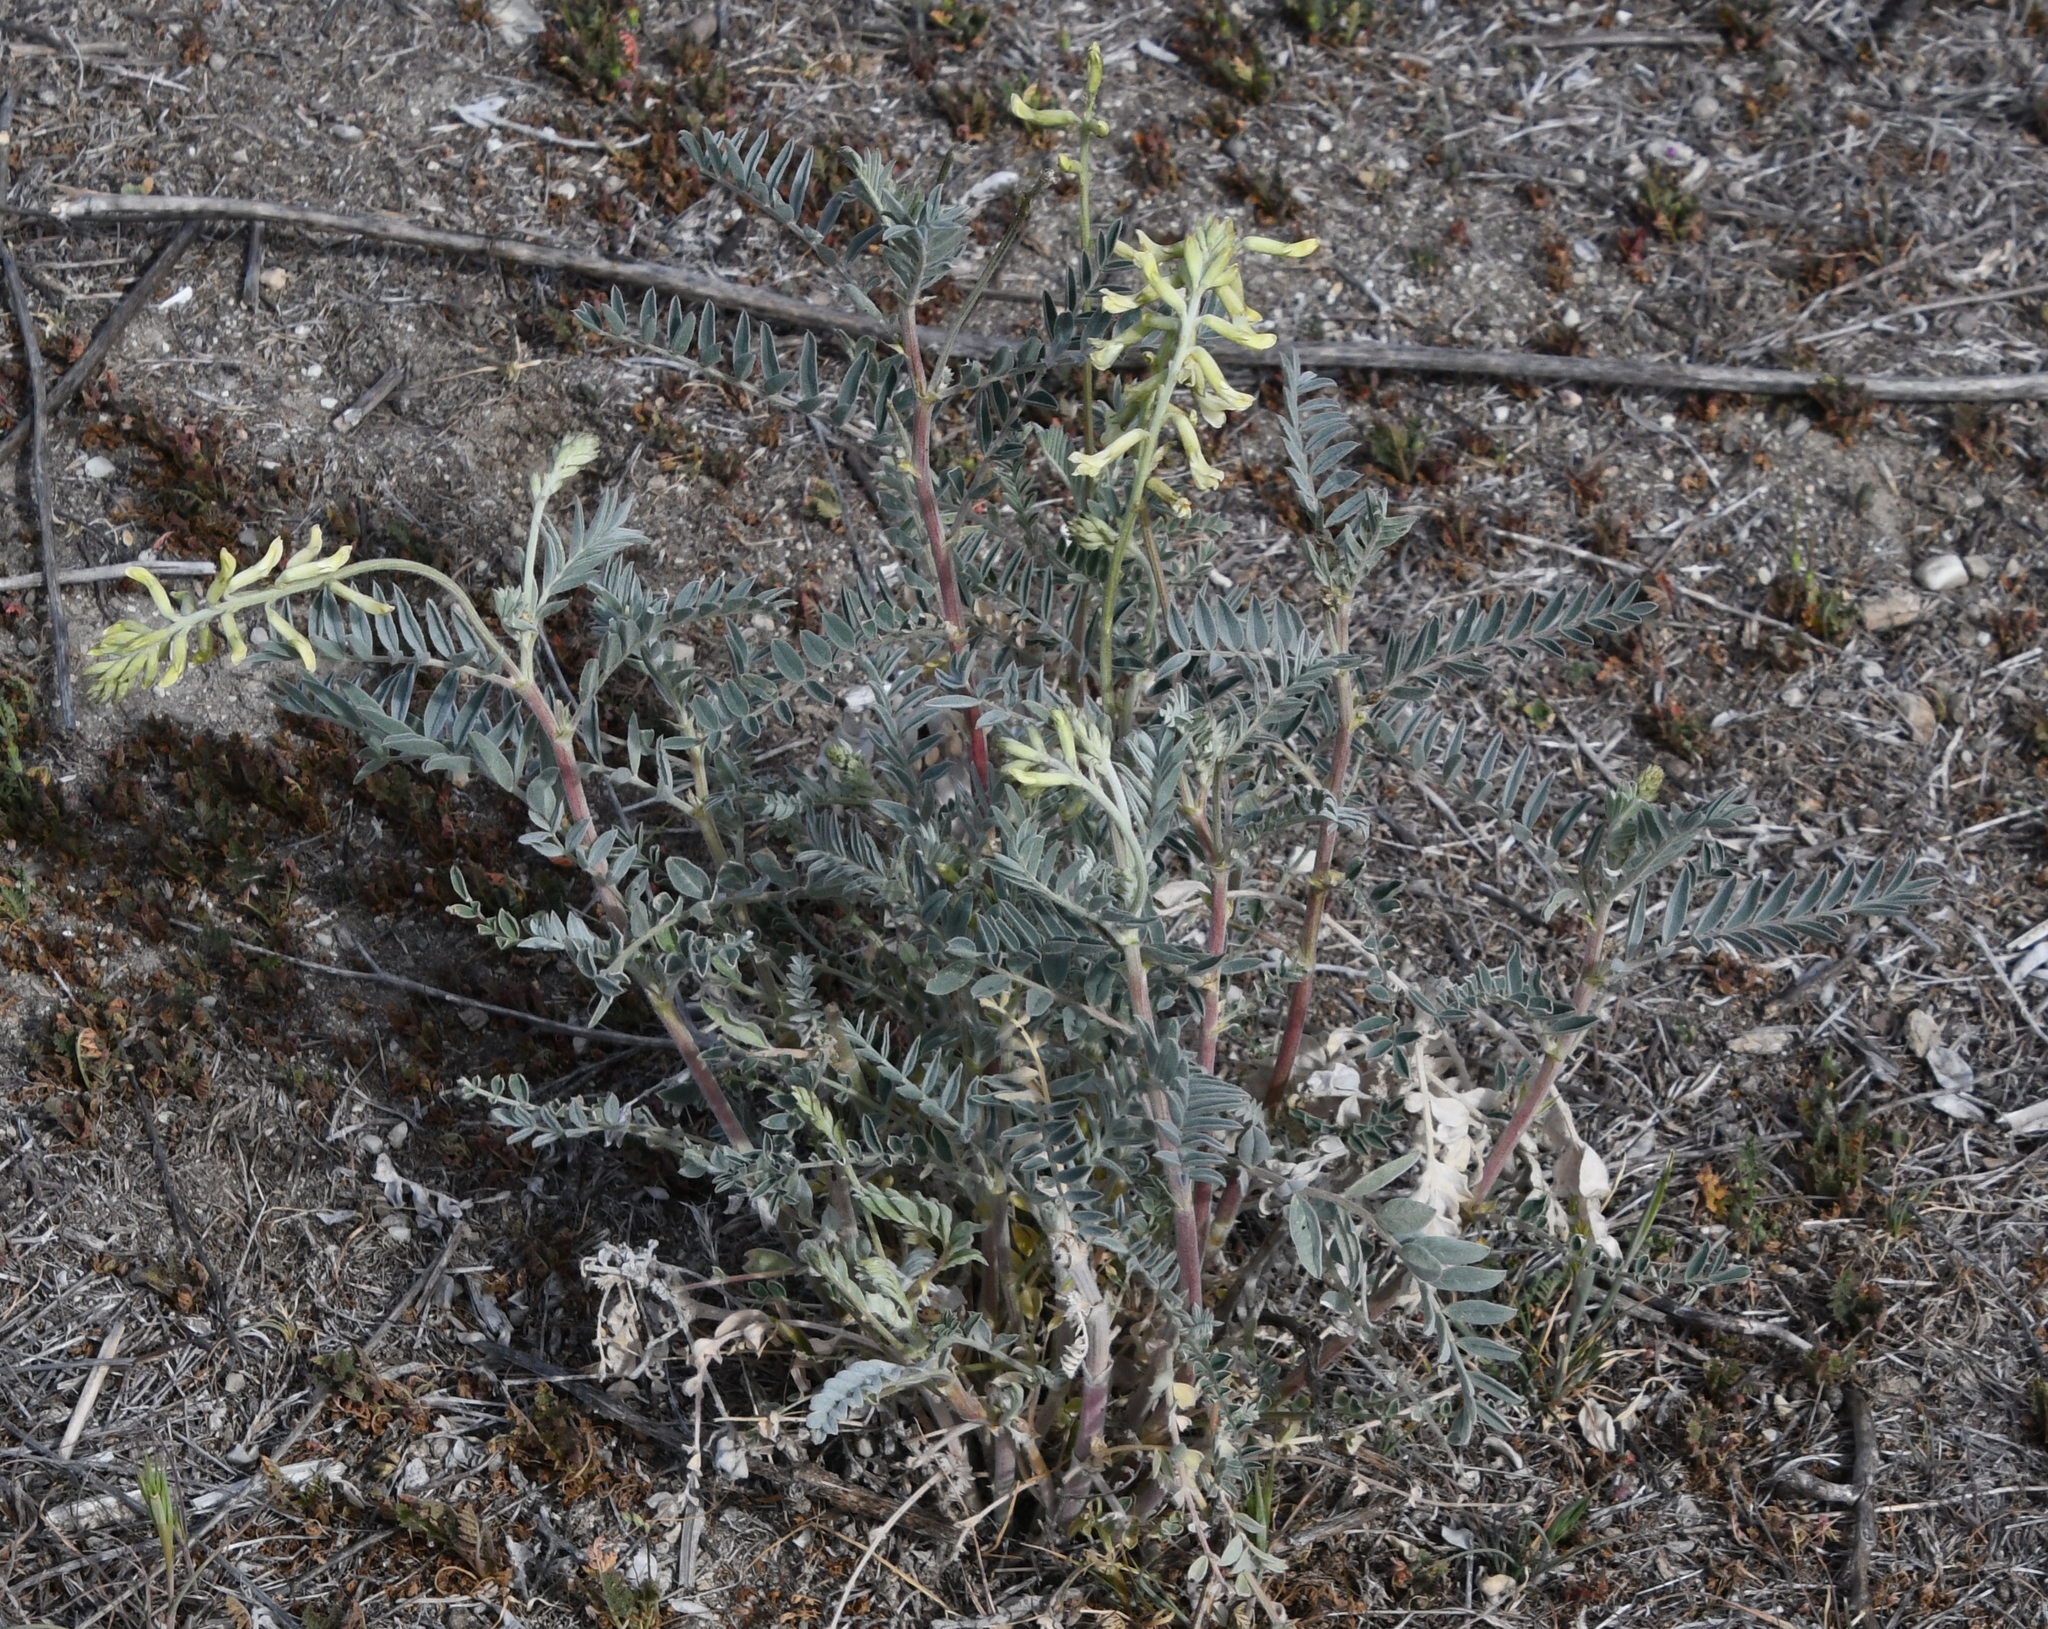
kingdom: Plantae
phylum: Tracheophyta
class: Magnoliopsida
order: Fabales
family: Fabaceae
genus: Astragalus
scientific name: Astragalus oxyphysus
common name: Stanislaus milk-vetch
